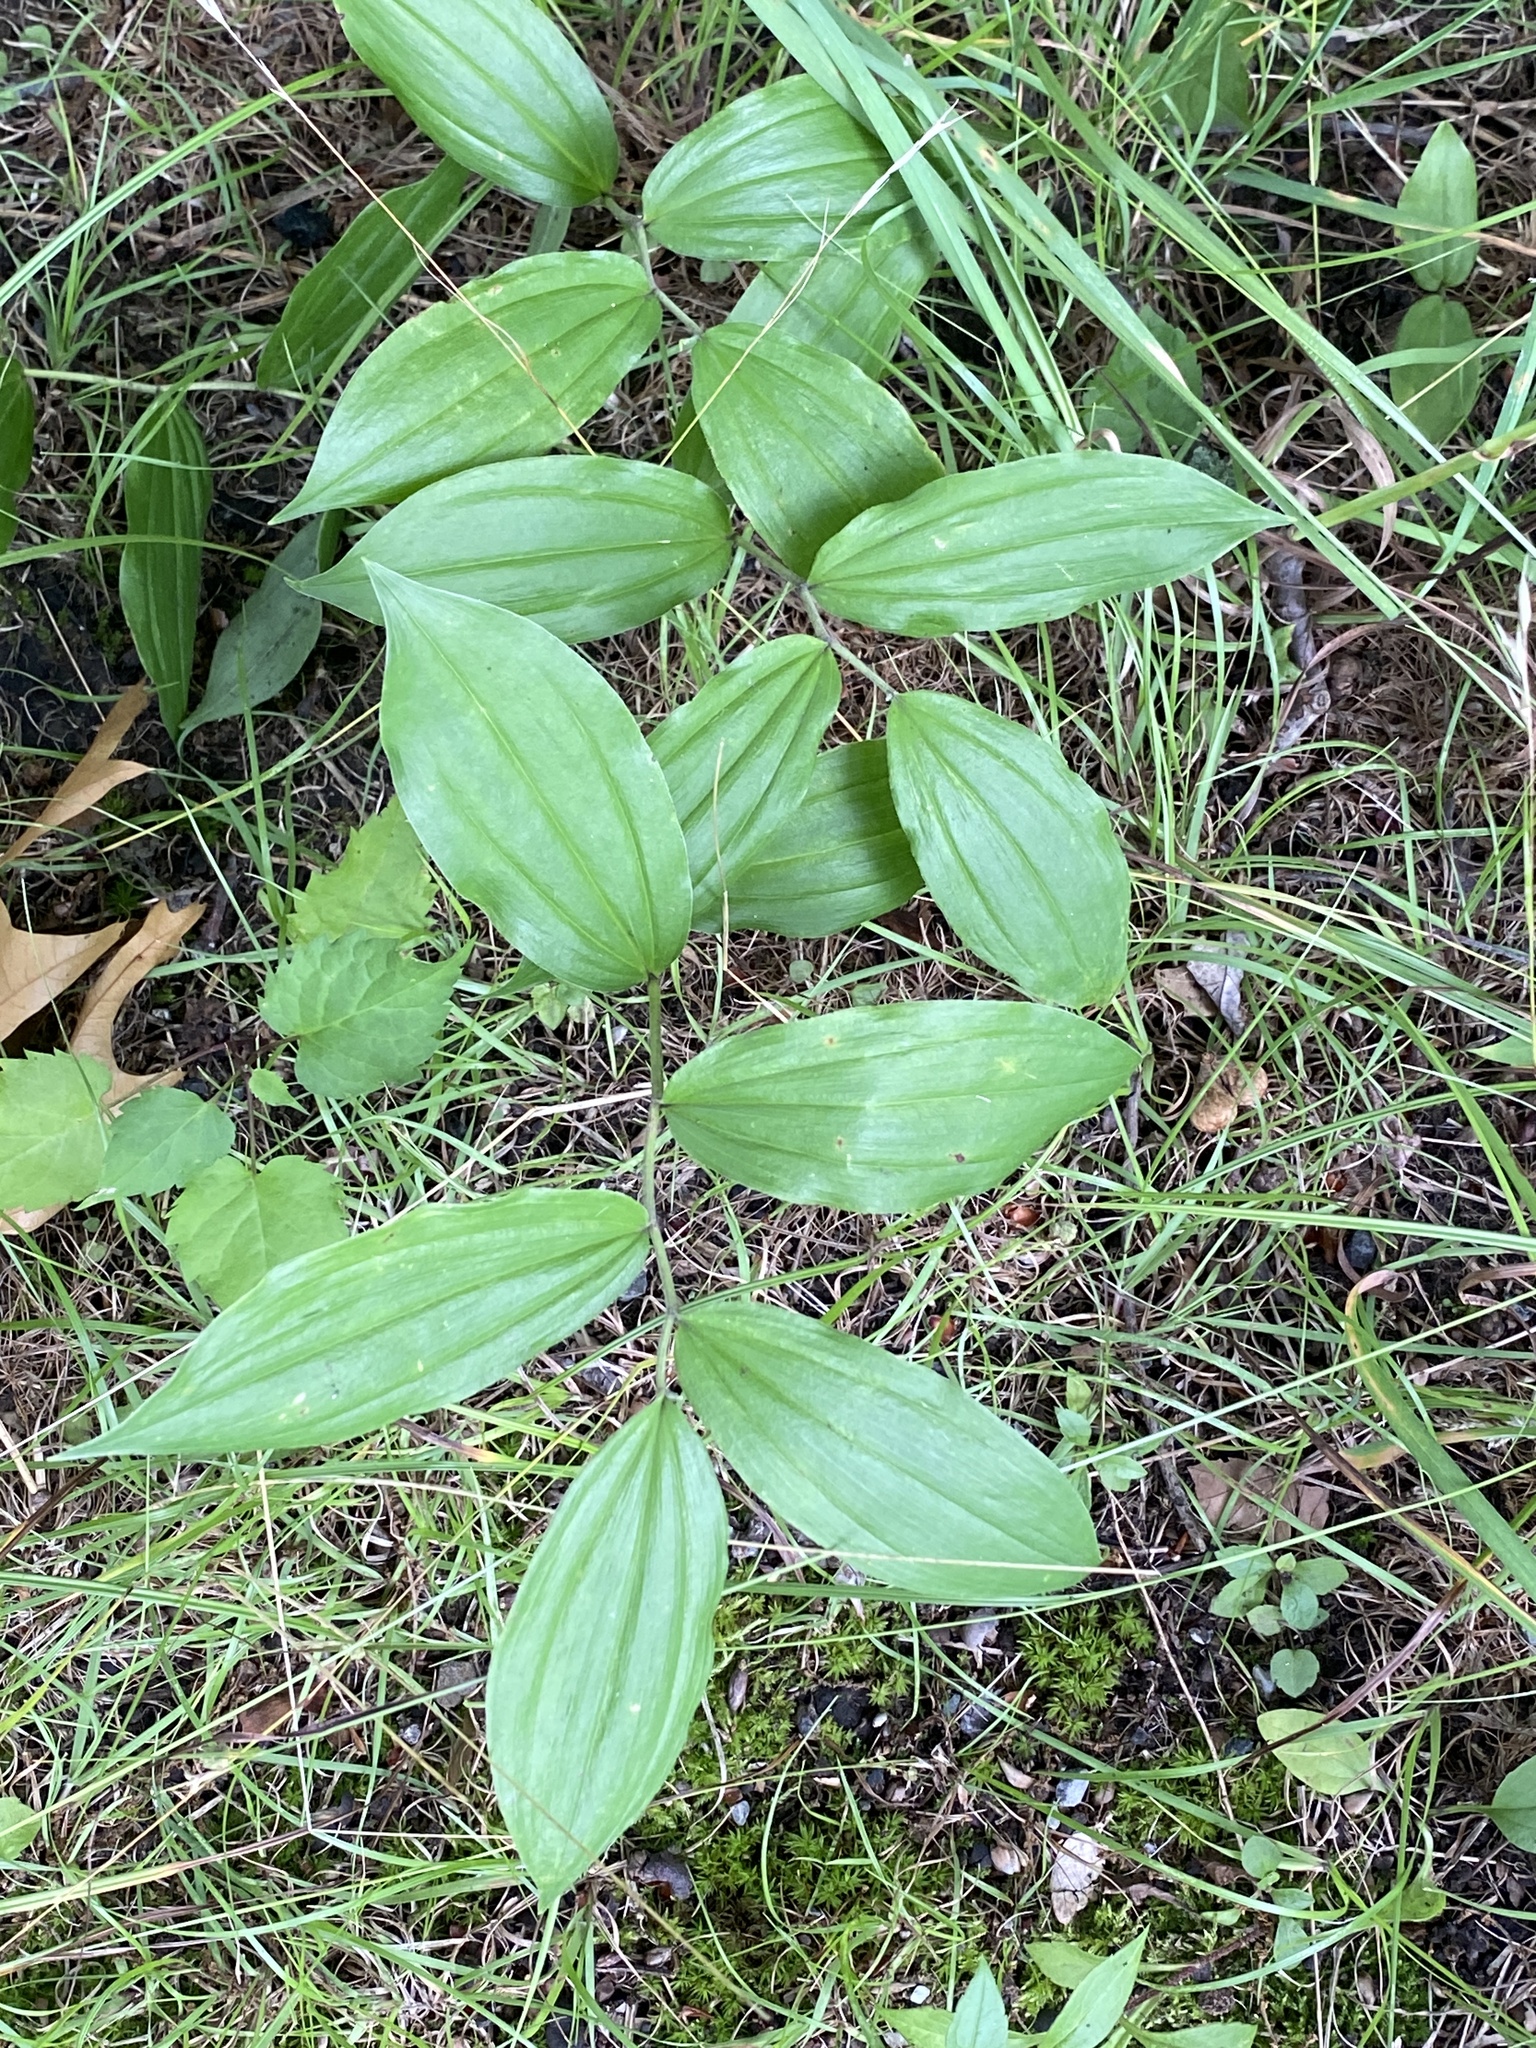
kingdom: Plantae
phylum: Tracheophyta
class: Liliopsida
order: Asparagales
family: Asparagaceae
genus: Maianthemum
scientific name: Maianthemum racemosum
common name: False spikenard
